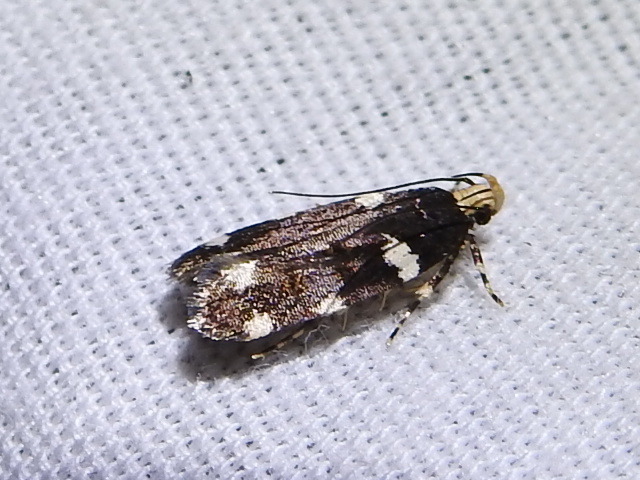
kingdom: Animalia
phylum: Arthropoda
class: Insecta
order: Lepidoptera
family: Gelechiidae
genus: Fascista
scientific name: Fascista cercerisella
